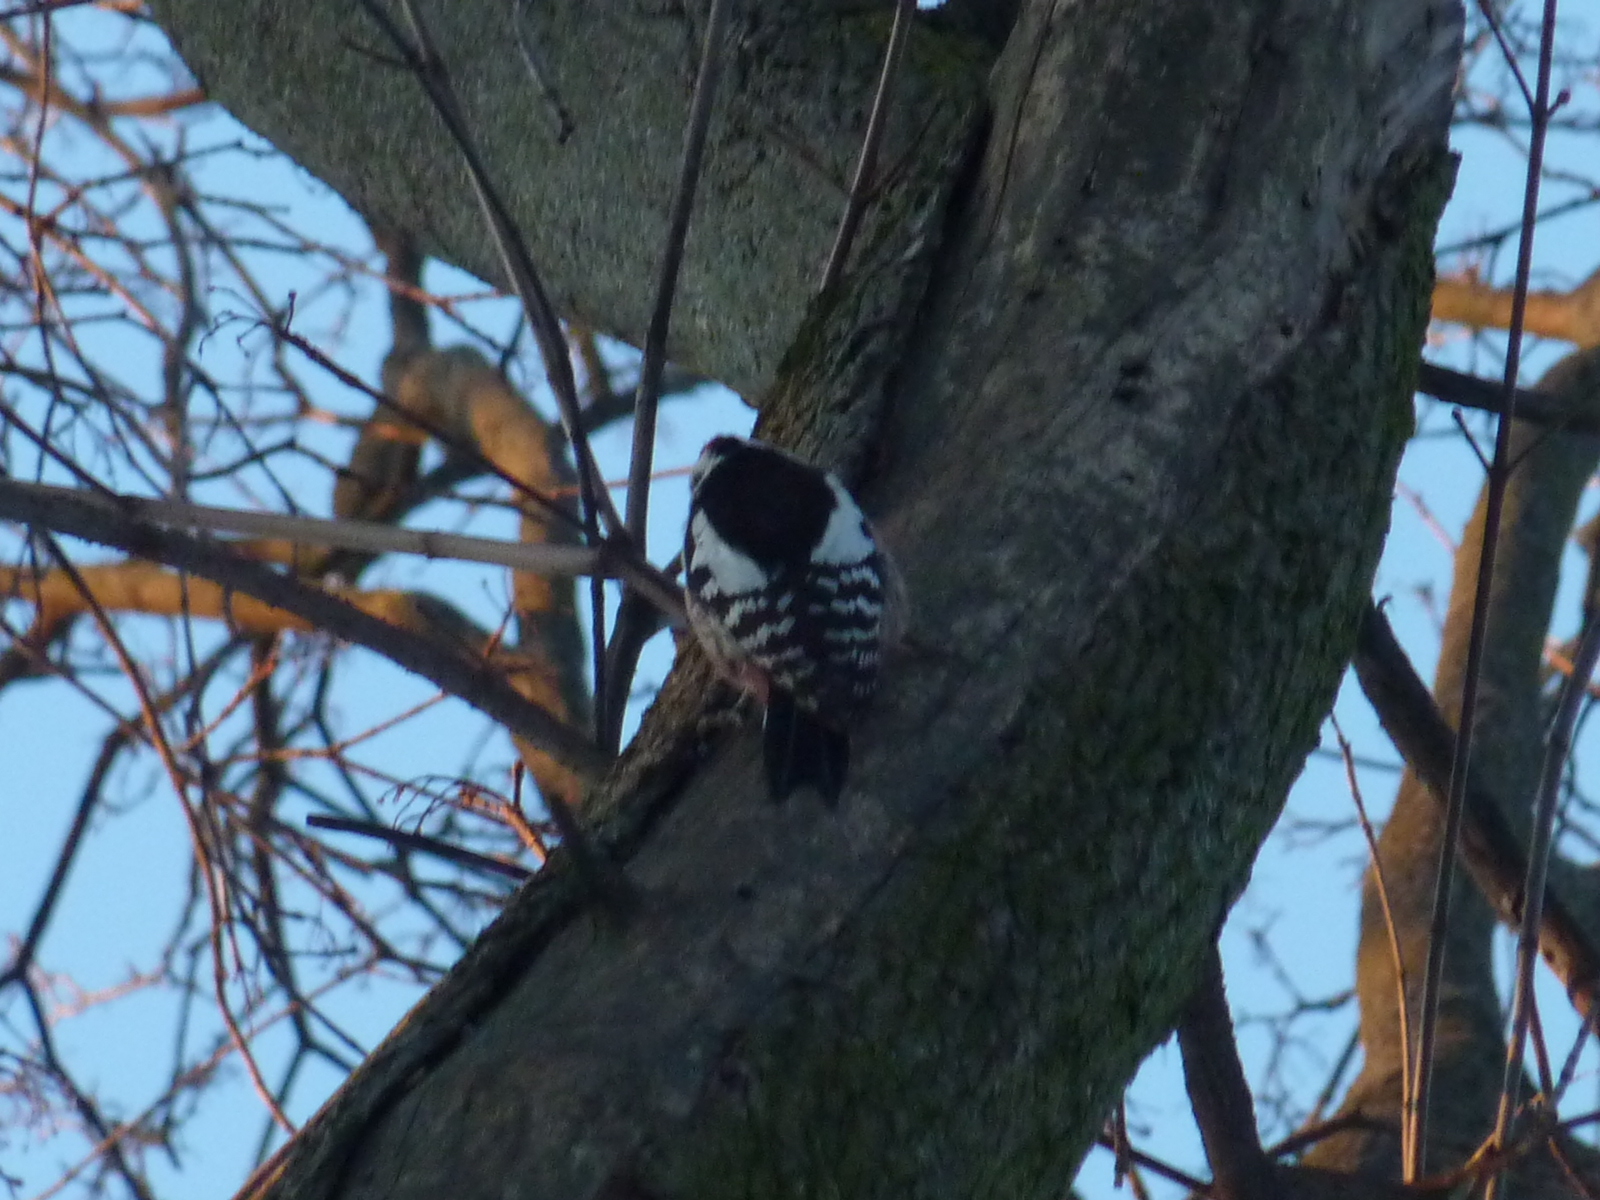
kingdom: Animalia
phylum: Chordata
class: Aves
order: Piciformes
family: Picidae
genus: Dendrocoptes
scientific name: Dendrocoptes medius
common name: Middle spotted woodpecker
